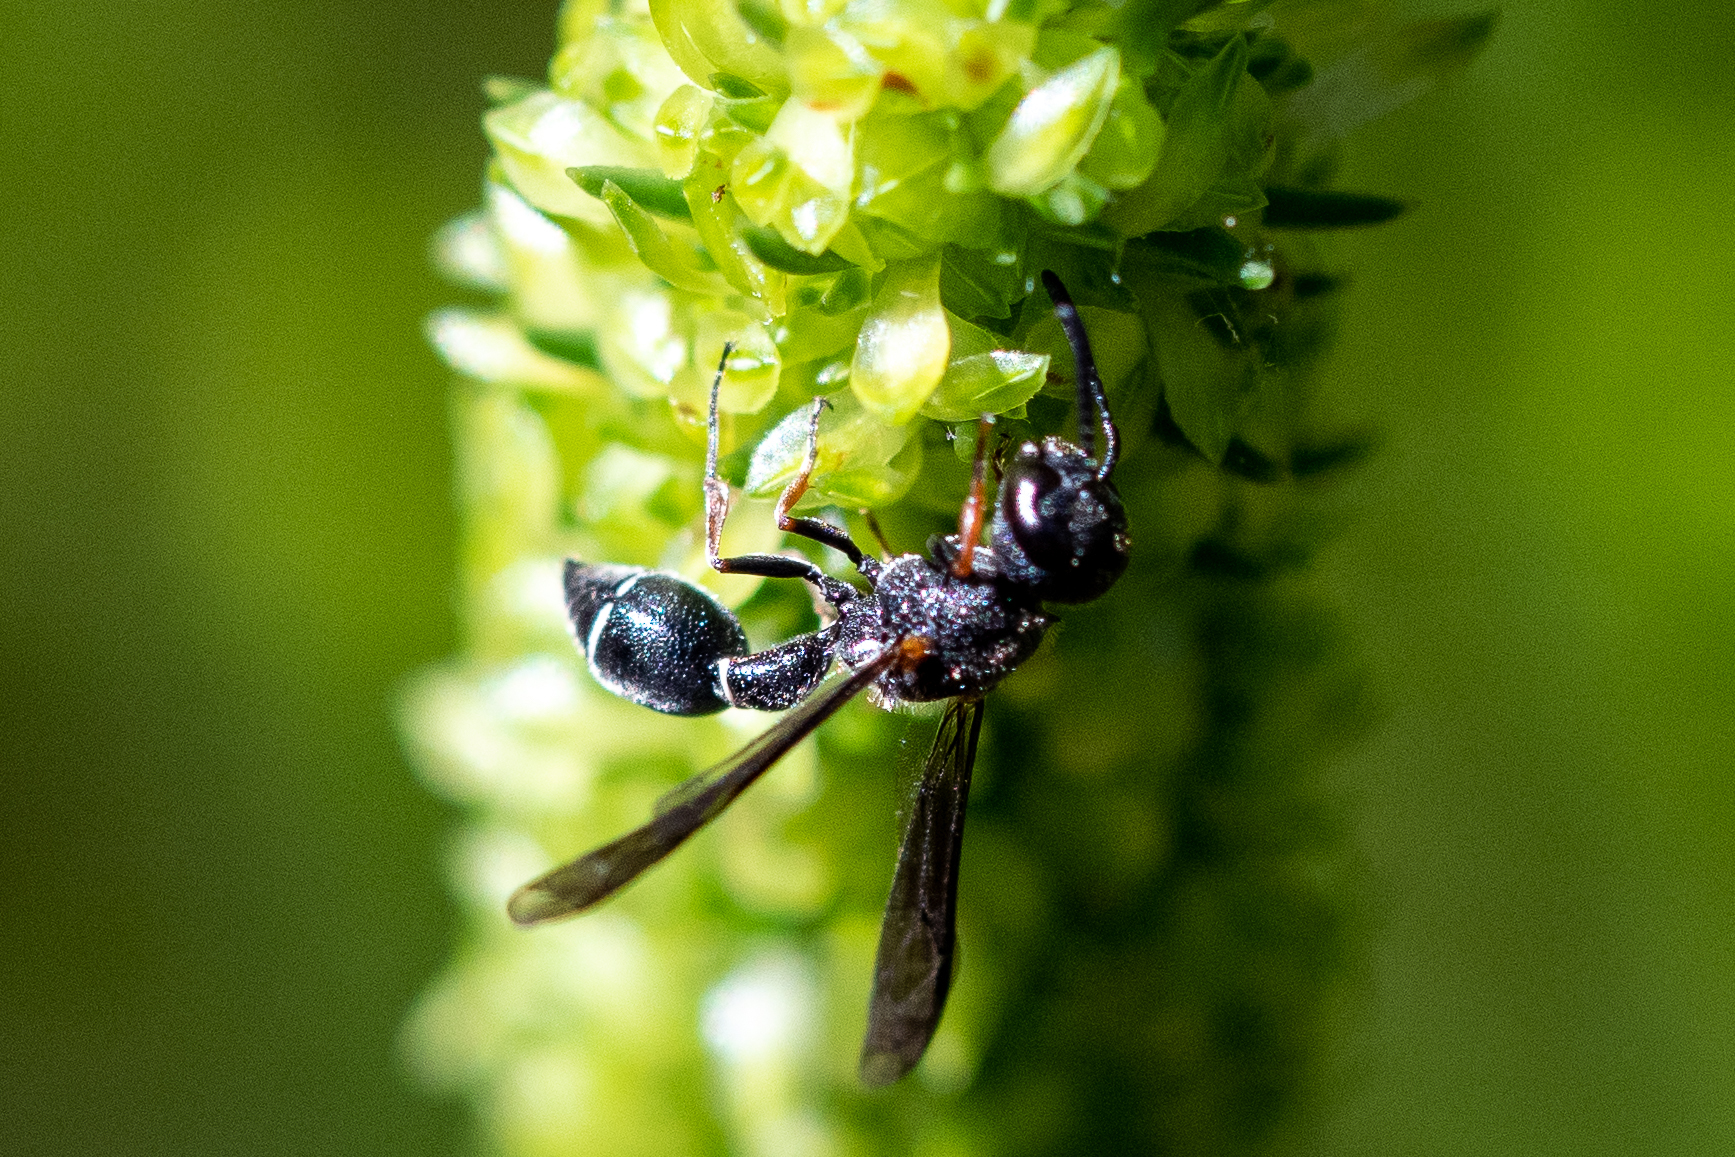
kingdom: Animalia
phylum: Arthropoda
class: Insecta
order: Hymenoptera
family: Eumenidae
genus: Stroudia
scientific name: Stroudia
